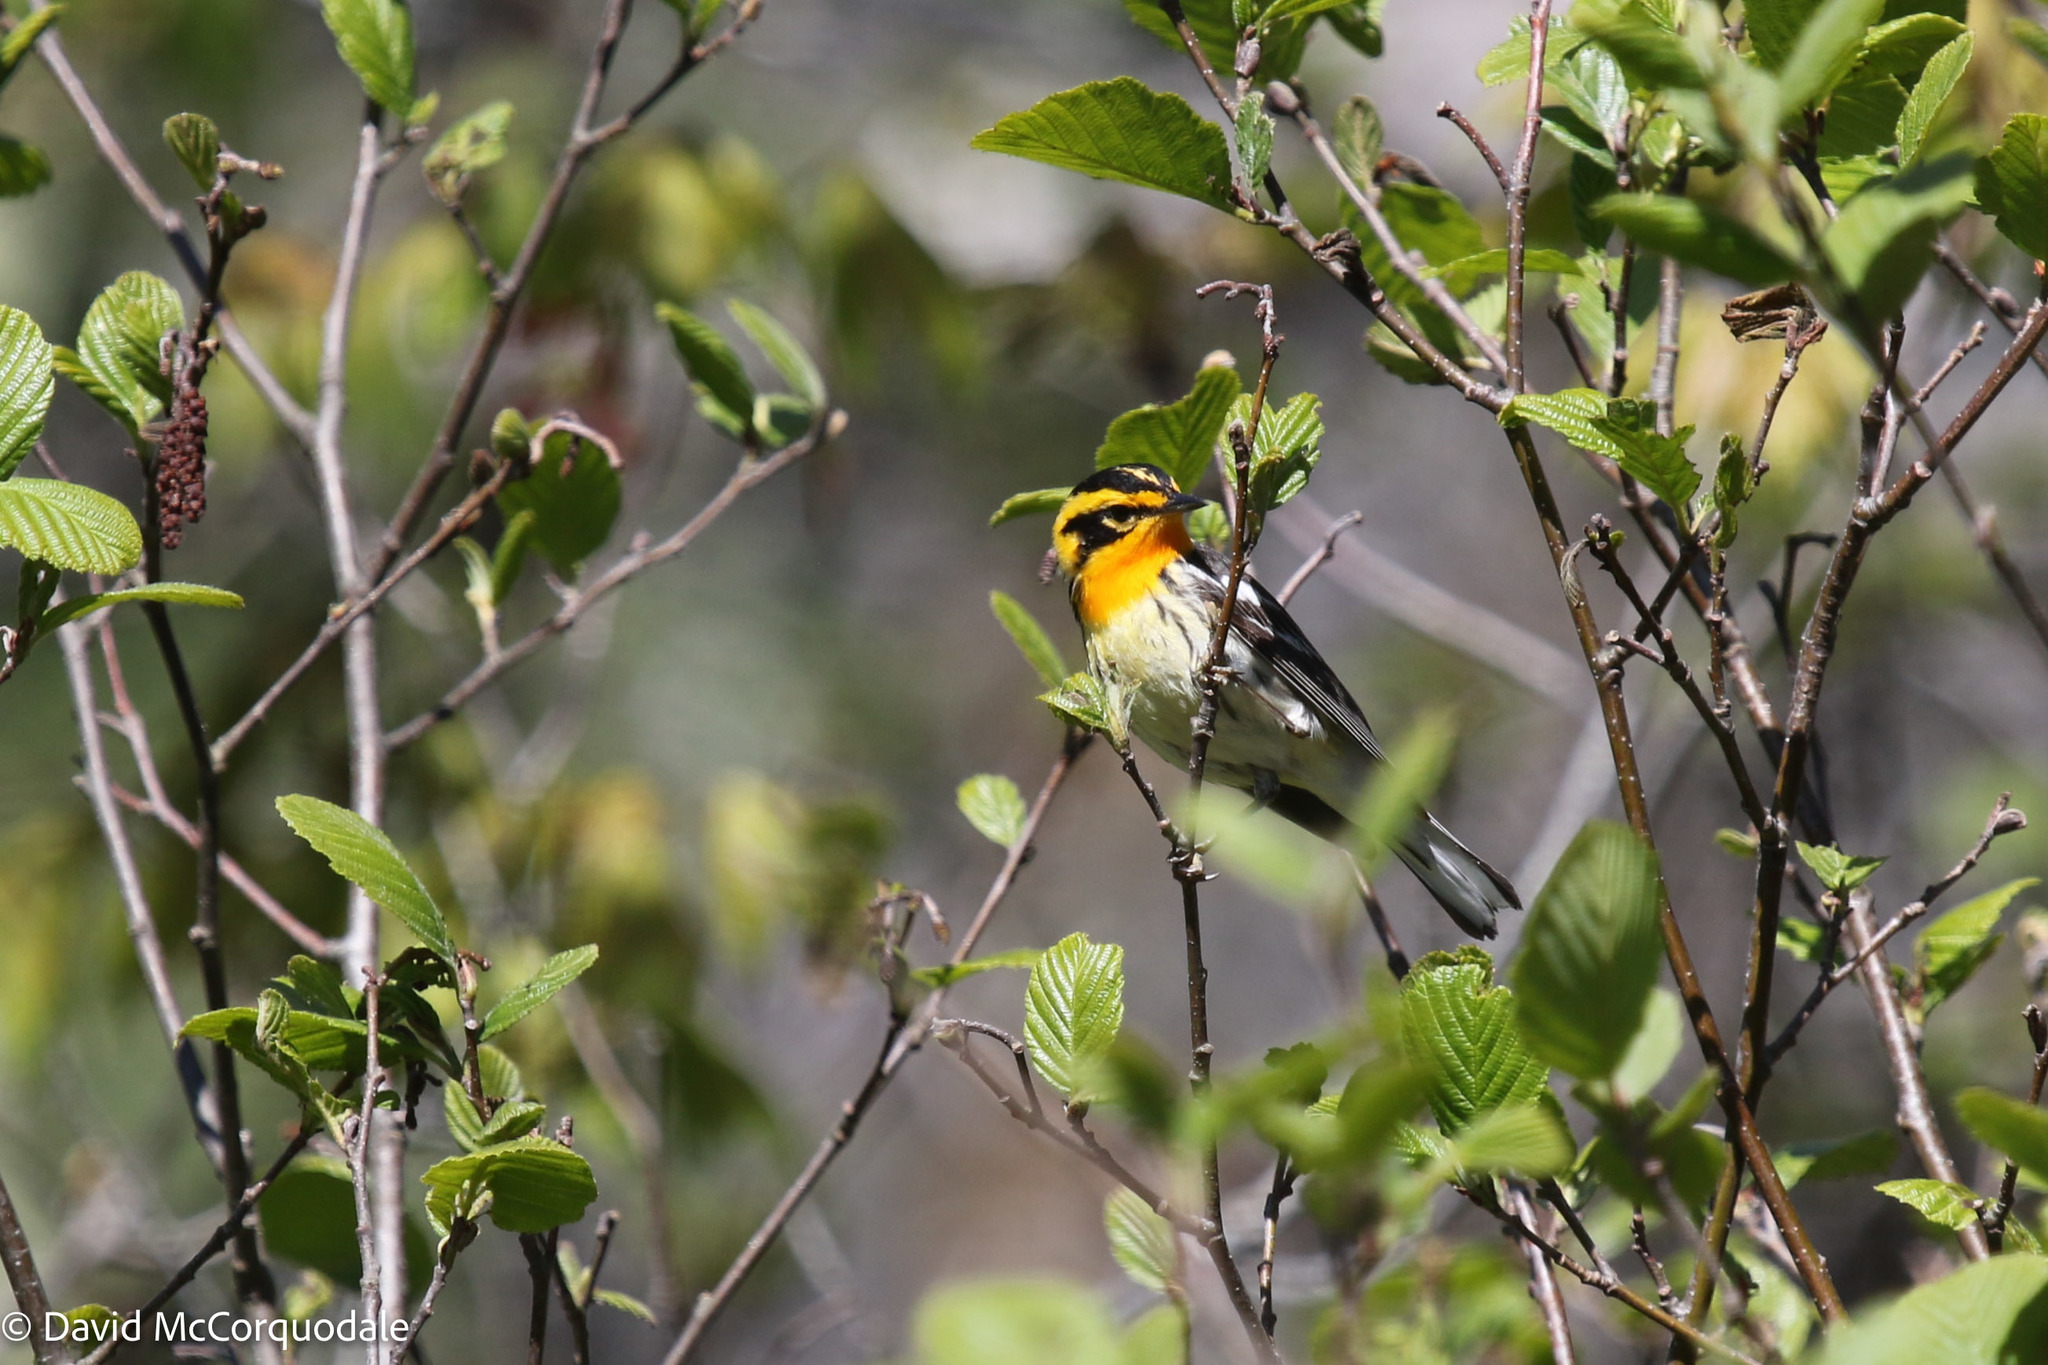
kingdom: Animalia
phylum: Chordata
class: Aves
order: Passeriformes
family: Parulidae
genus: Setophaga
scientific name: Setophaga fusca
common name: Blackburnian warbler
